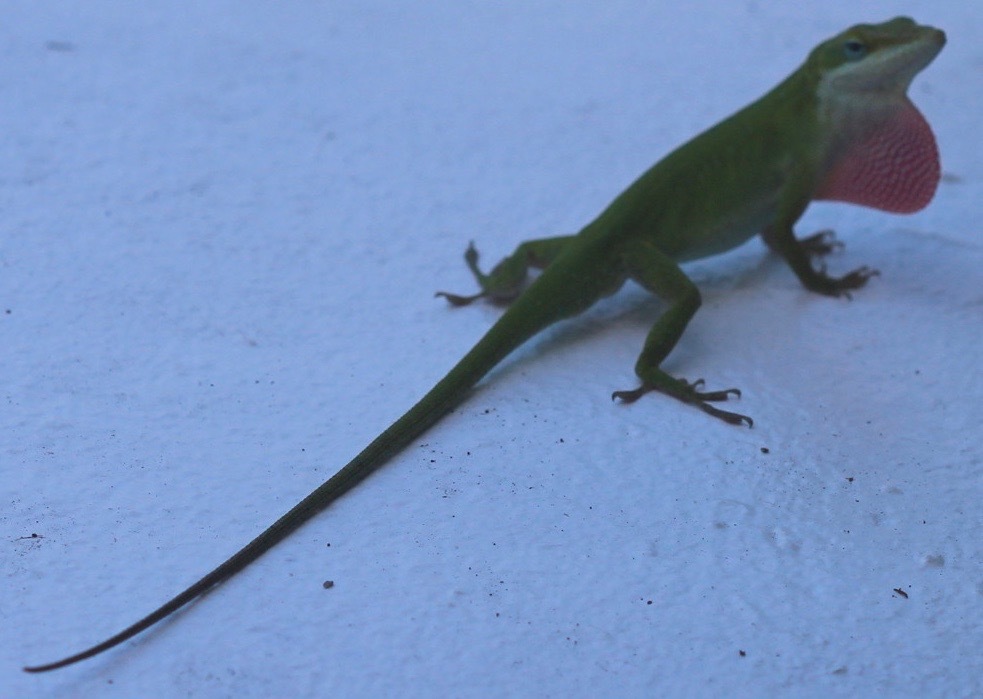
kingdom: Animalia
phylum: Chordata
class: Squamata
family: Dactyloidae
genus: Anolis
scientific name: Anolis carolinensis
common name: Green anole
